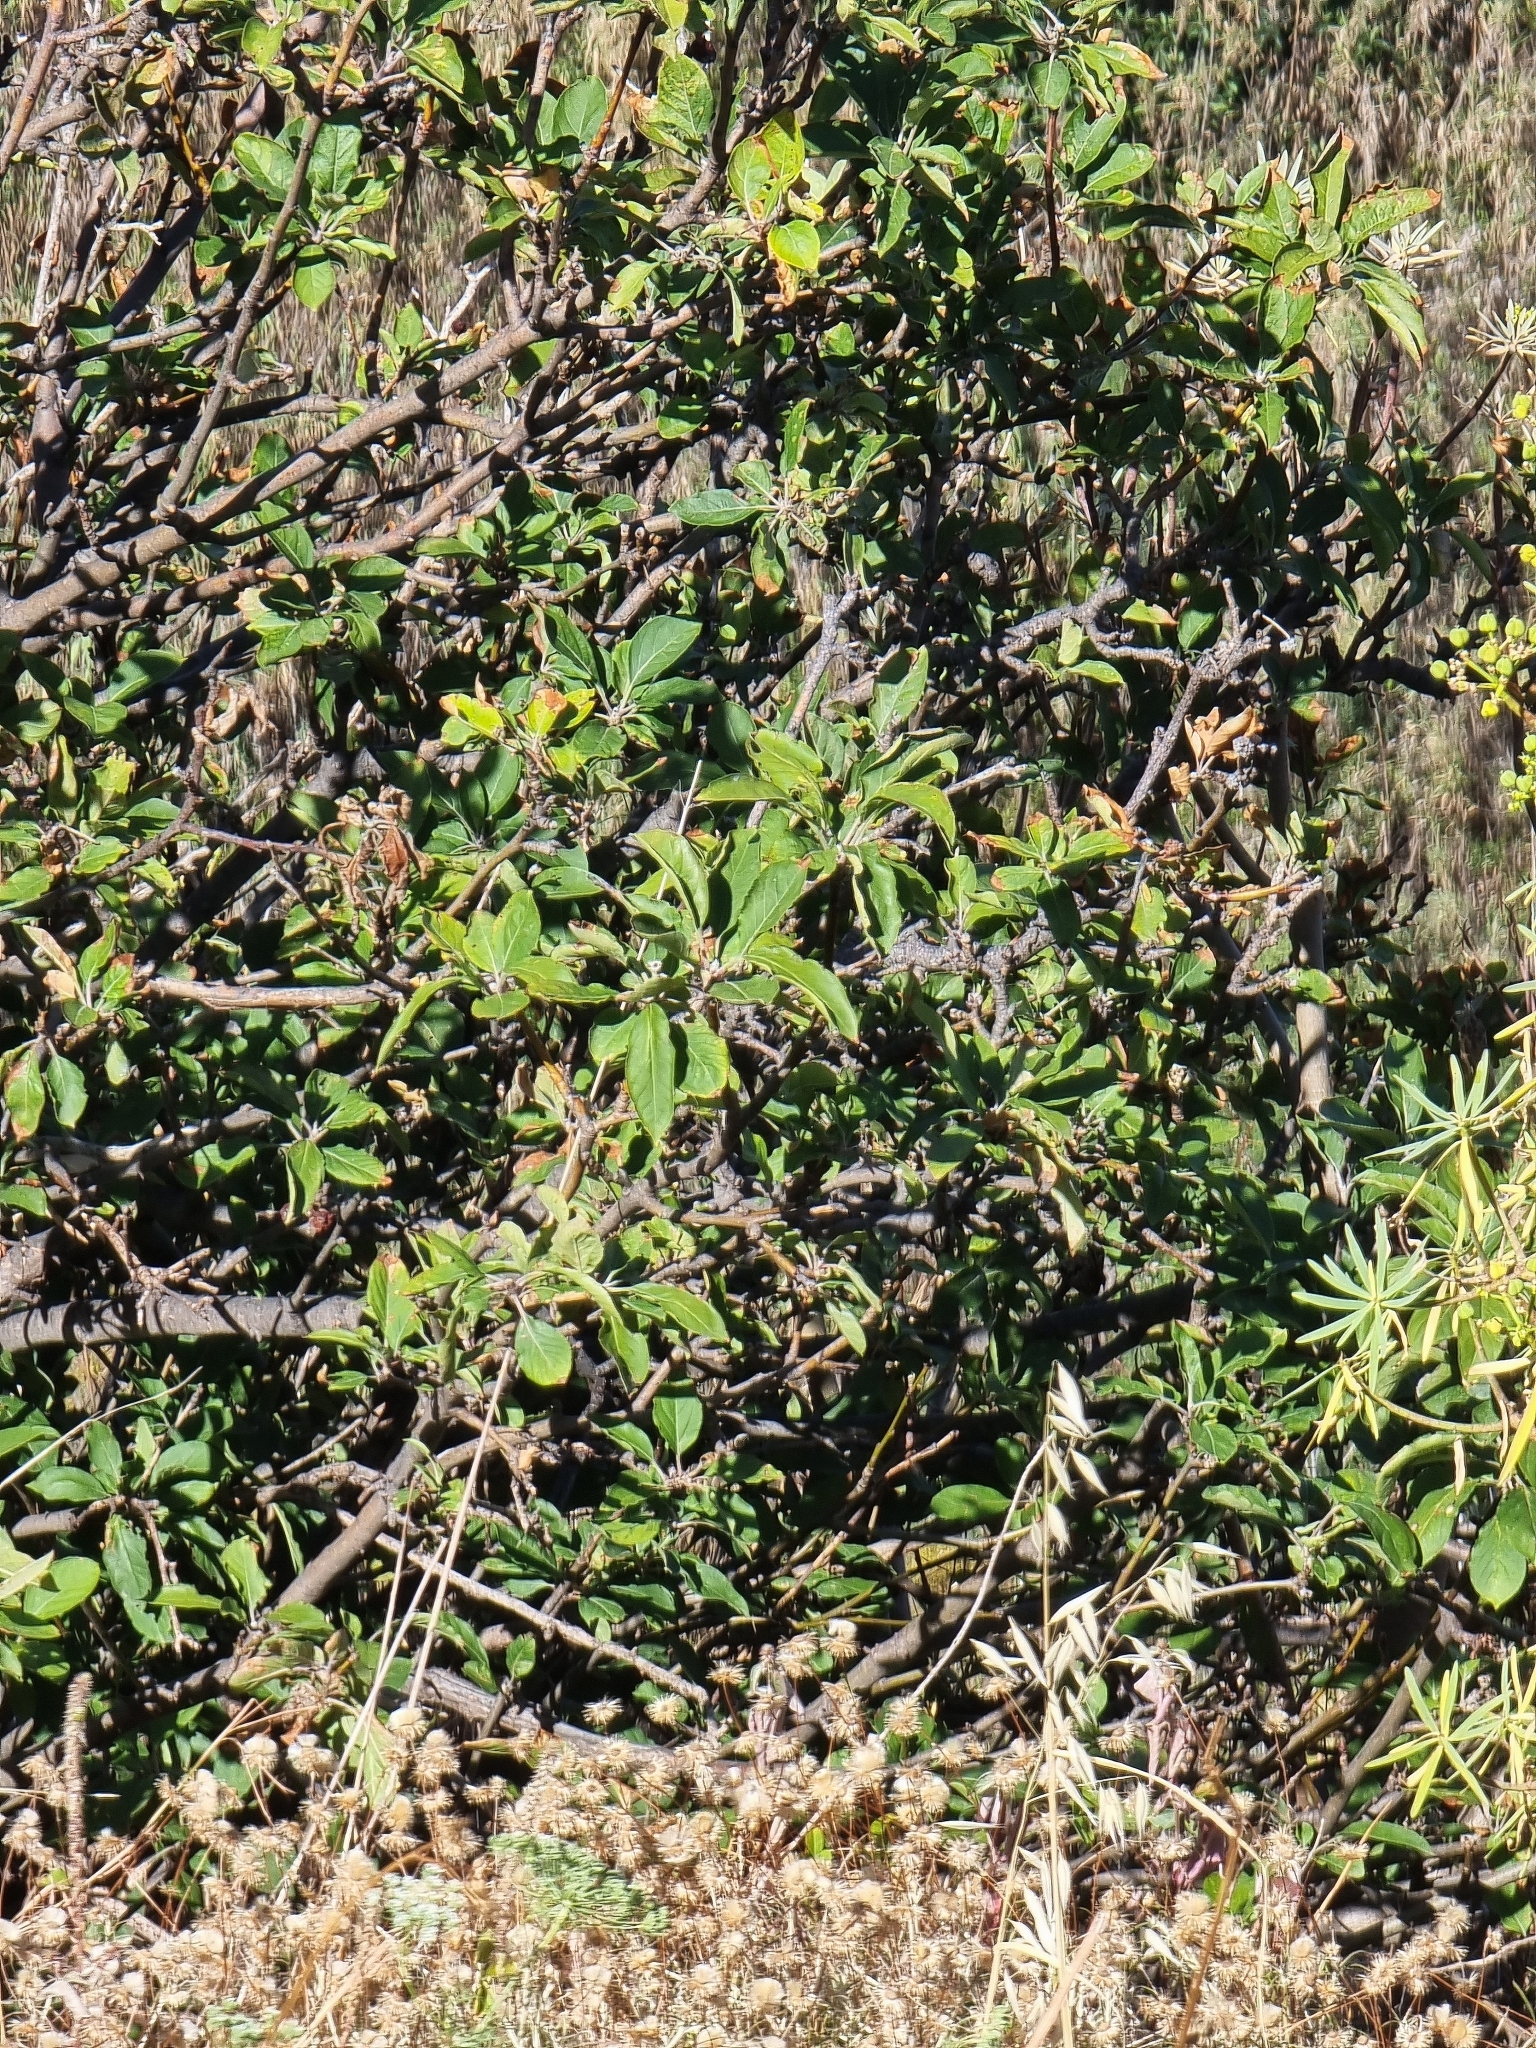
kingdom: Plantae
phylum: Tracheophyta
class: Magnoliopsida
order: Rosales
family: Rosaceae
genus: Malus
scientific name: Malus domestica
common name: Apple
